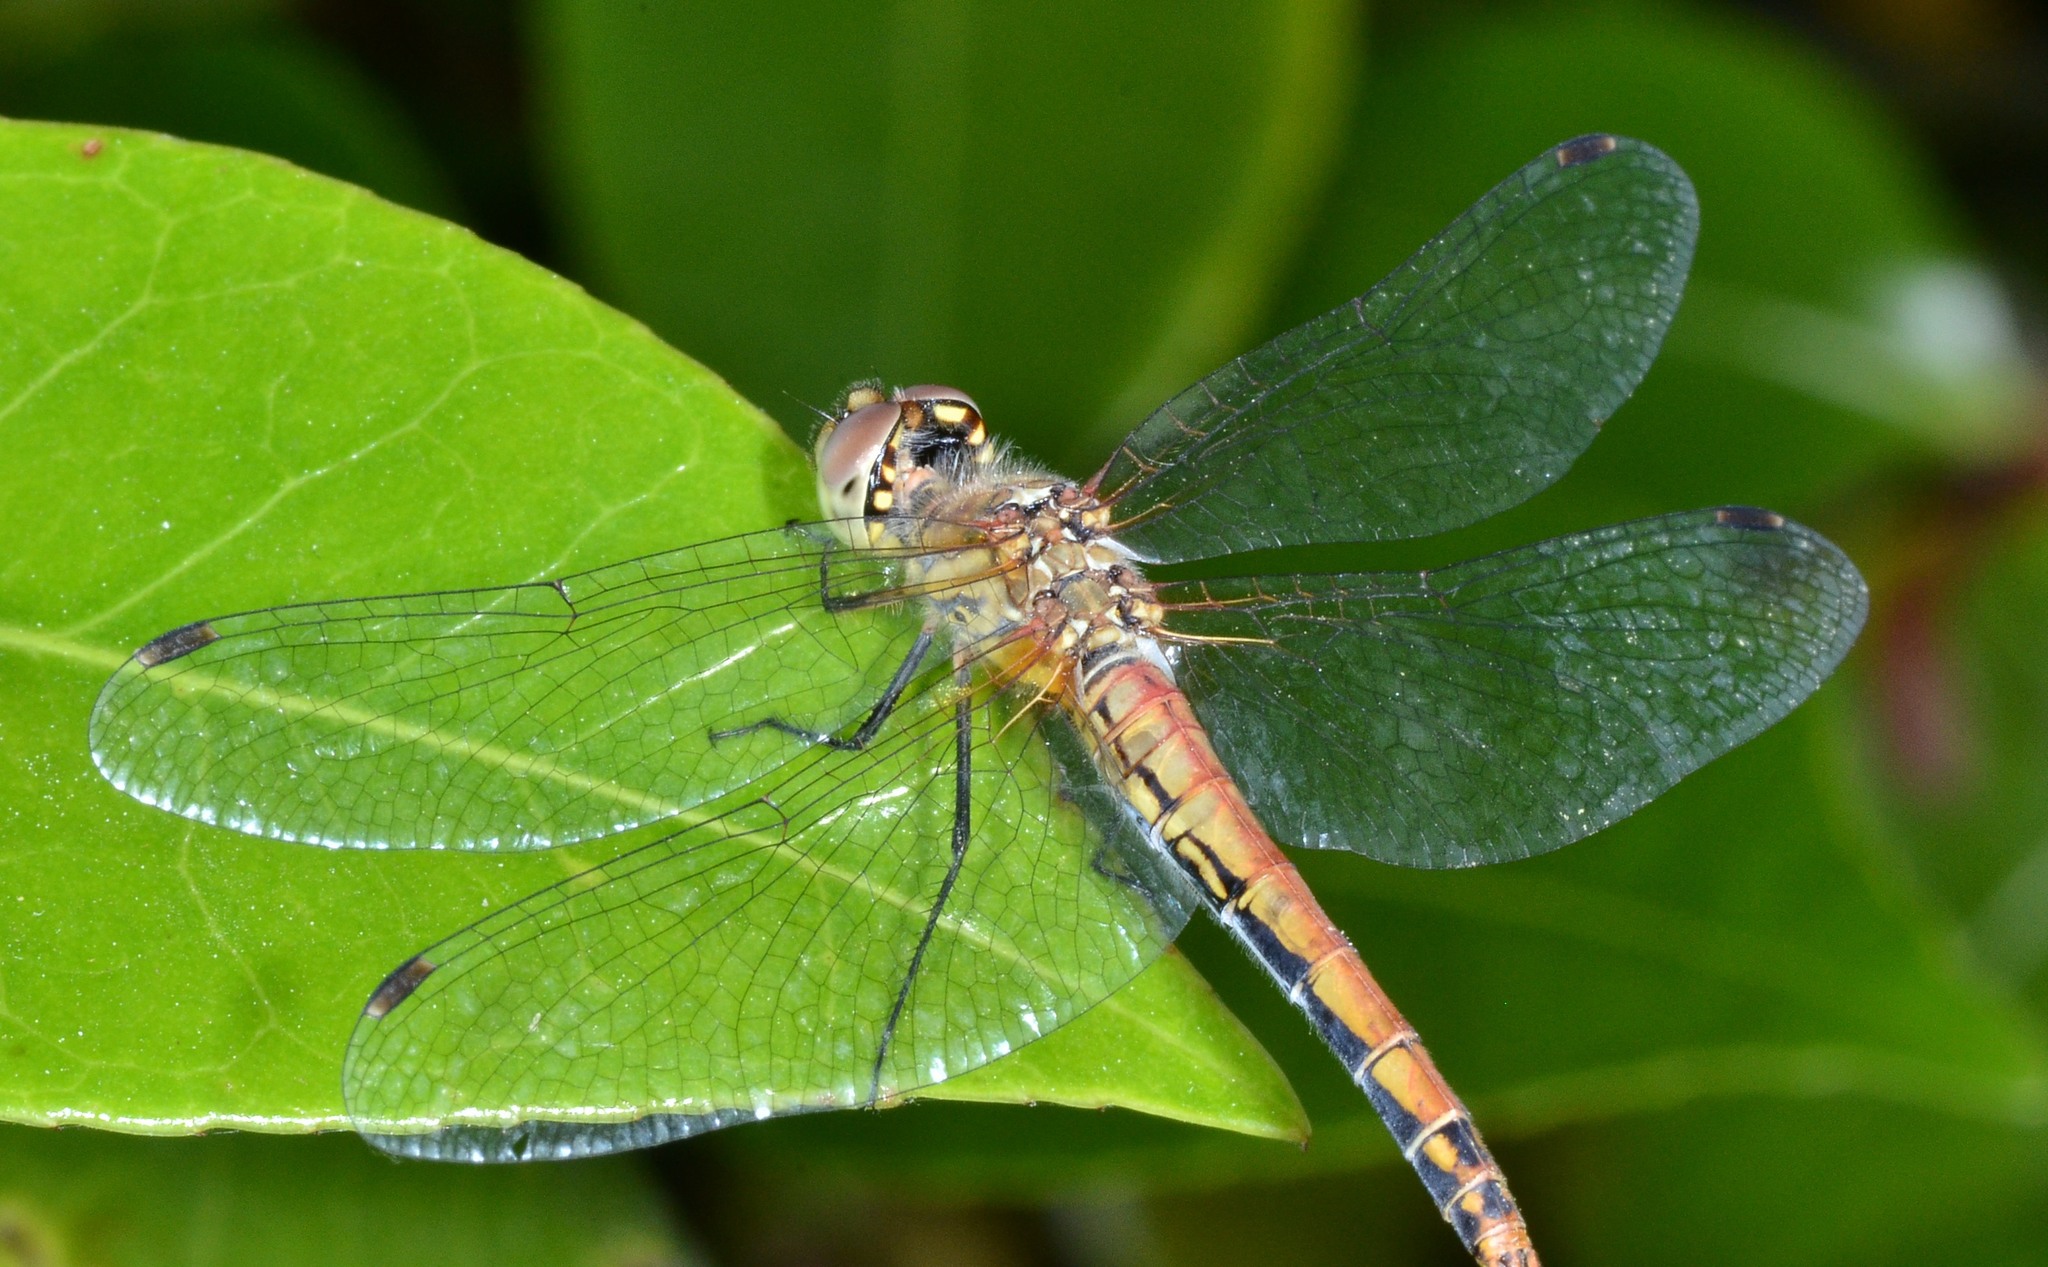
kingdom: Animalia
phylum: Arthropoda
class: Insecta
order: Odonata
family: Libellulidae
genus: Sympetrum
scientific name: Sympetrum semicinctum
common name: Band-winged meadowhawk
